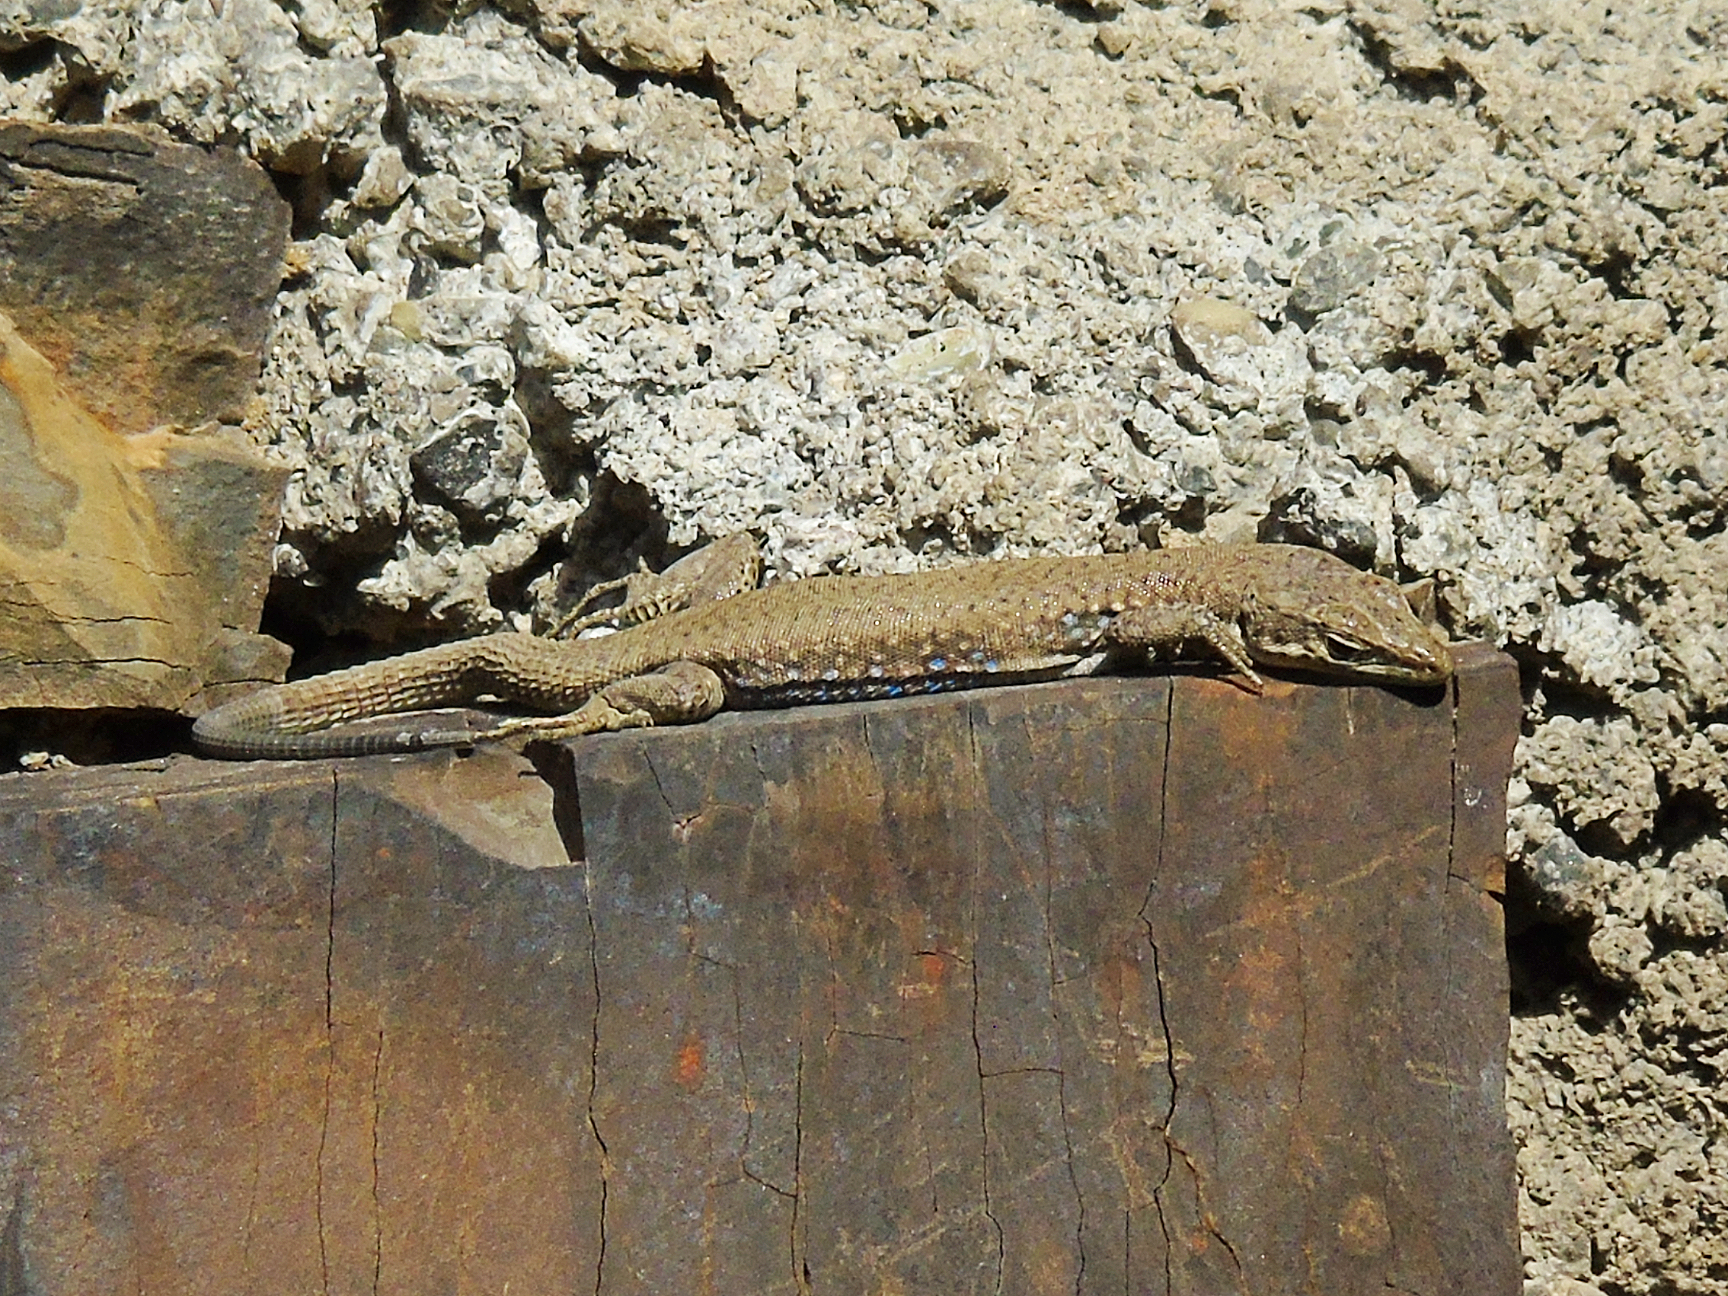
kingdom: Animalia
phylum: Chordata
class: Squamata
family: Lacertidae
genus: Darevskia
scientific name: Darevskia portschinskii
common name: River kura lizard
